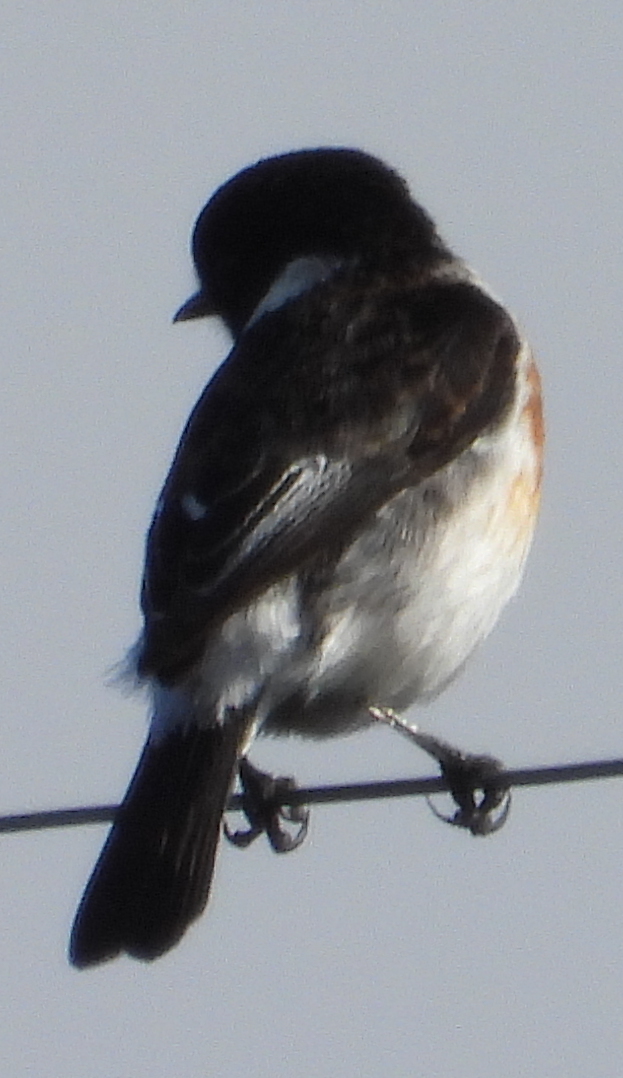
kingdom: Animalia
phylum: Chordata
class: Aves
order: Passeriformes
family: Muscicapidae
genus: Saxicola
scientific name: Saxicola torquatus
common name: African stonechat
